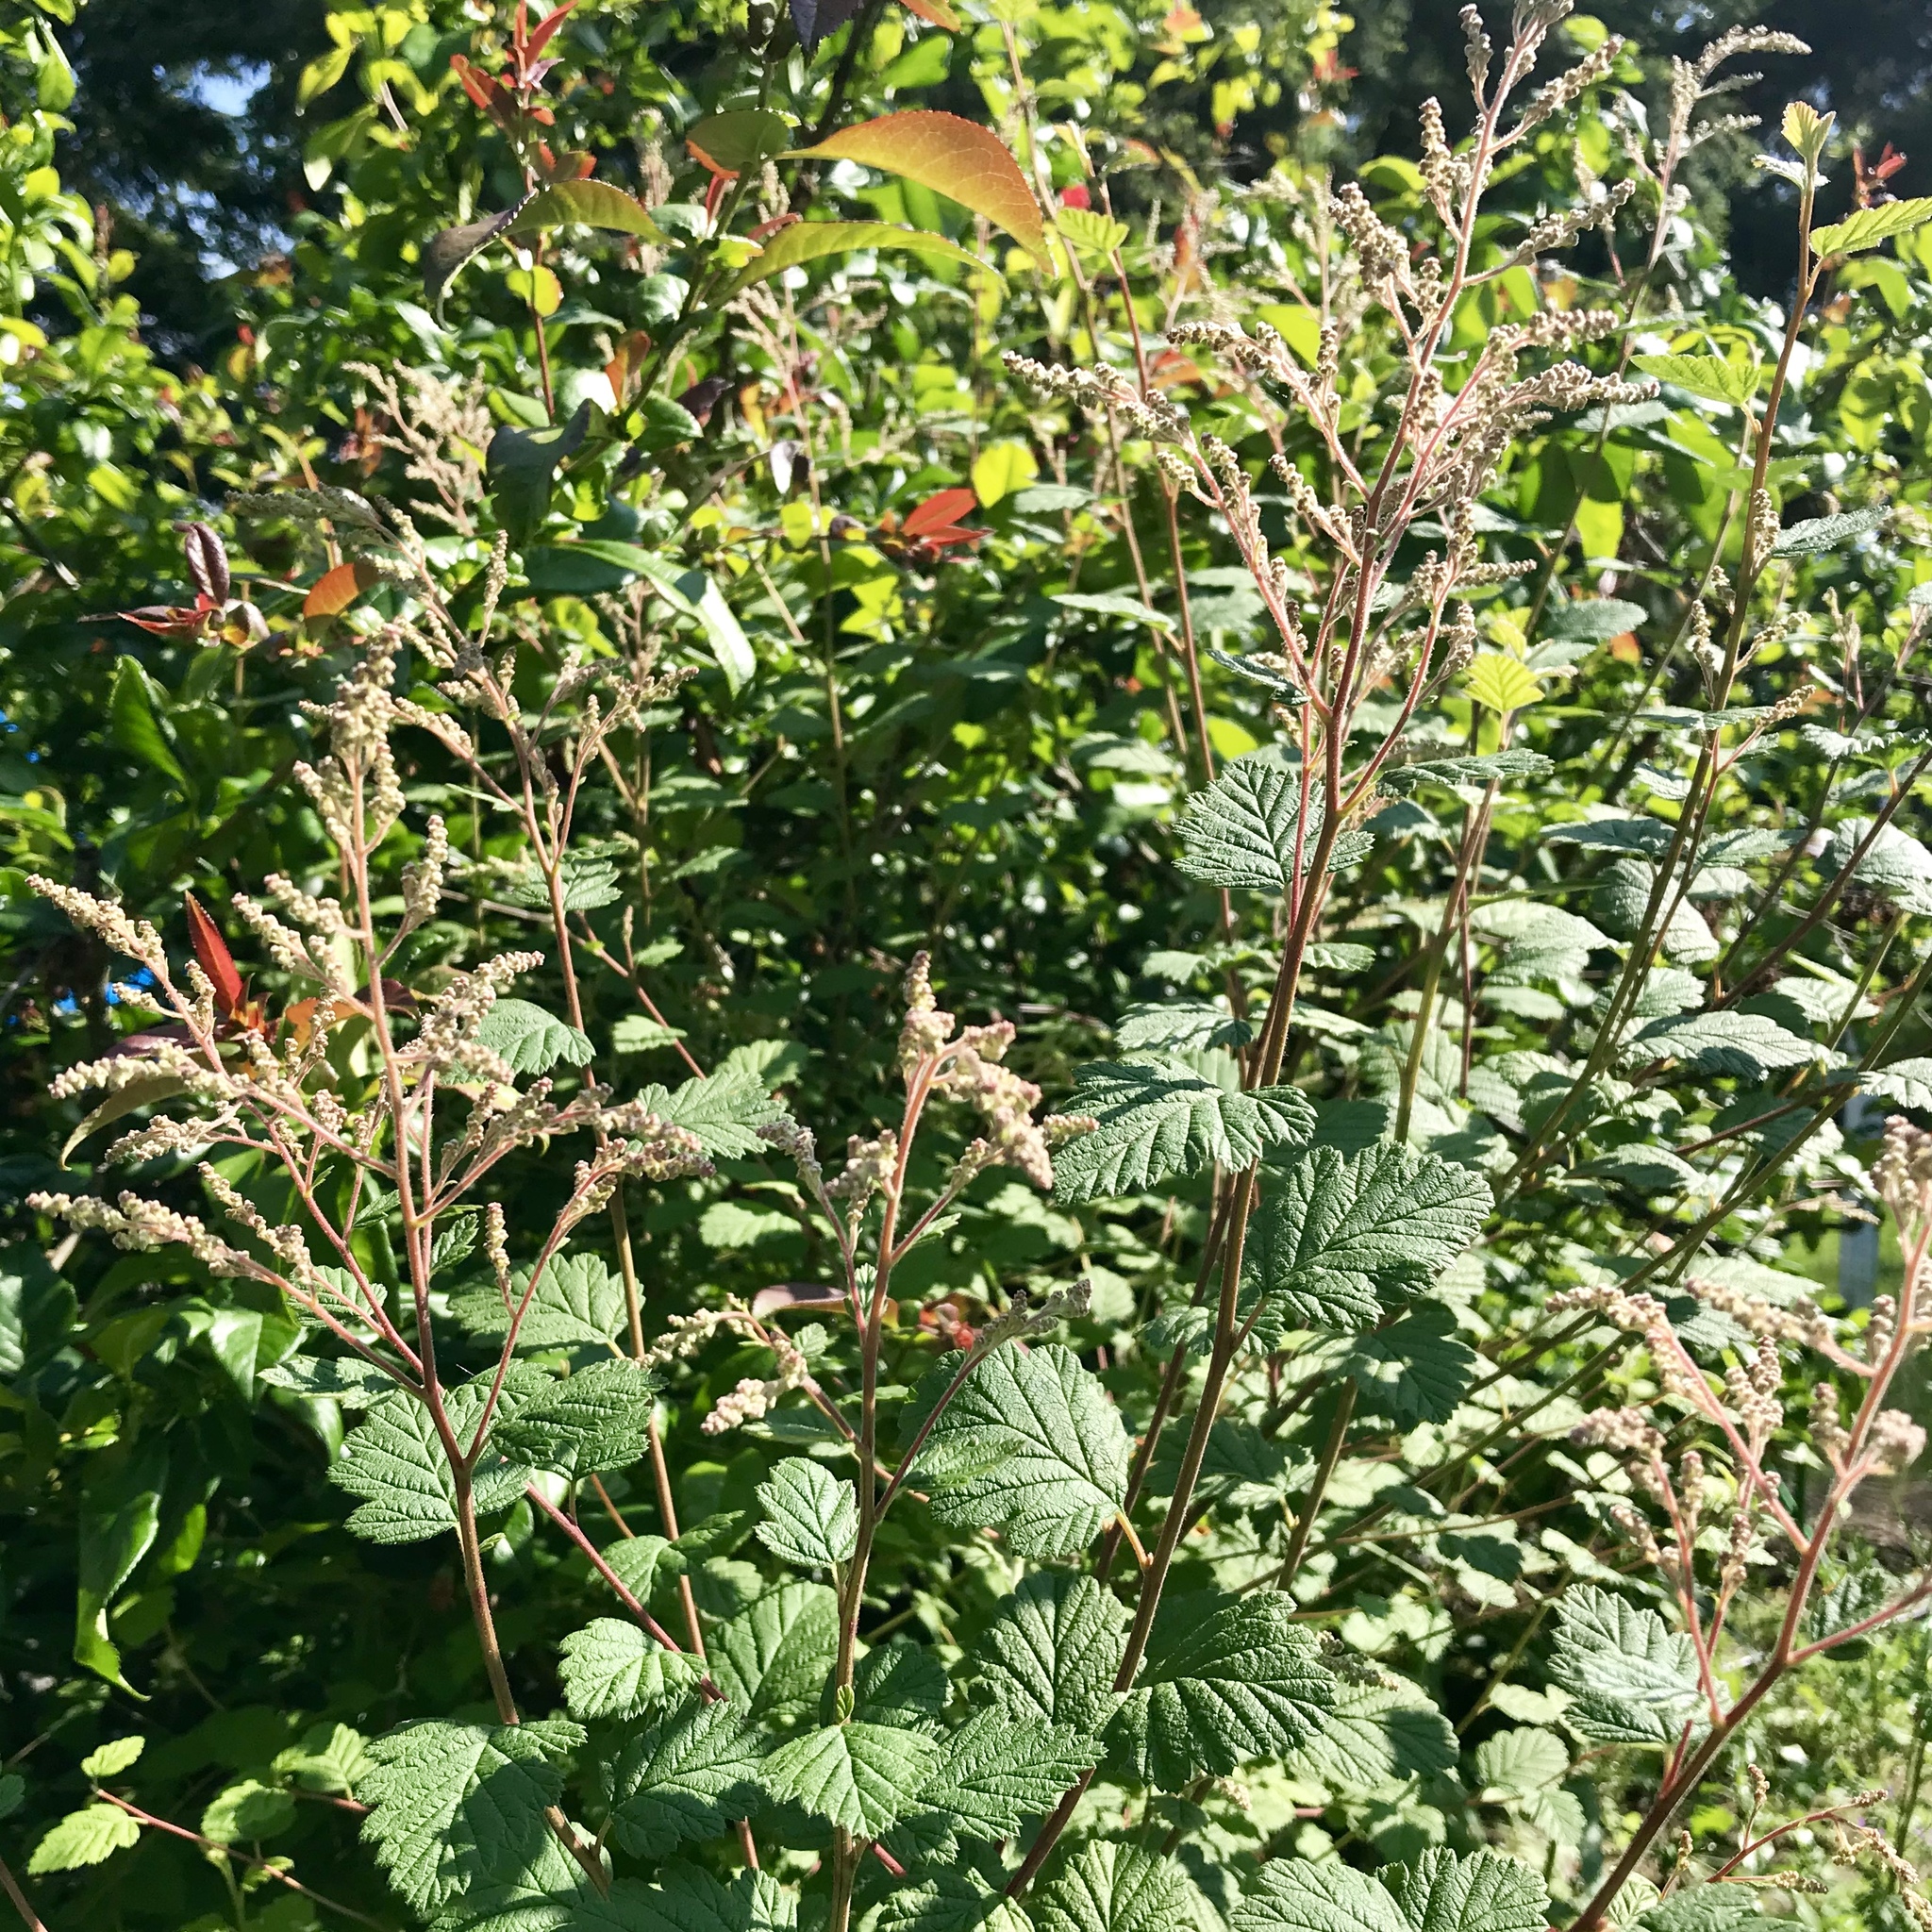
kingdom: Plantae
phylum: Tracheophyta
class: Magnoliopsida
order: Rosales
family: Rosaceae
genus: Holodiscus
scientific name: Holodiscus discolor
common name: Oceanspray
